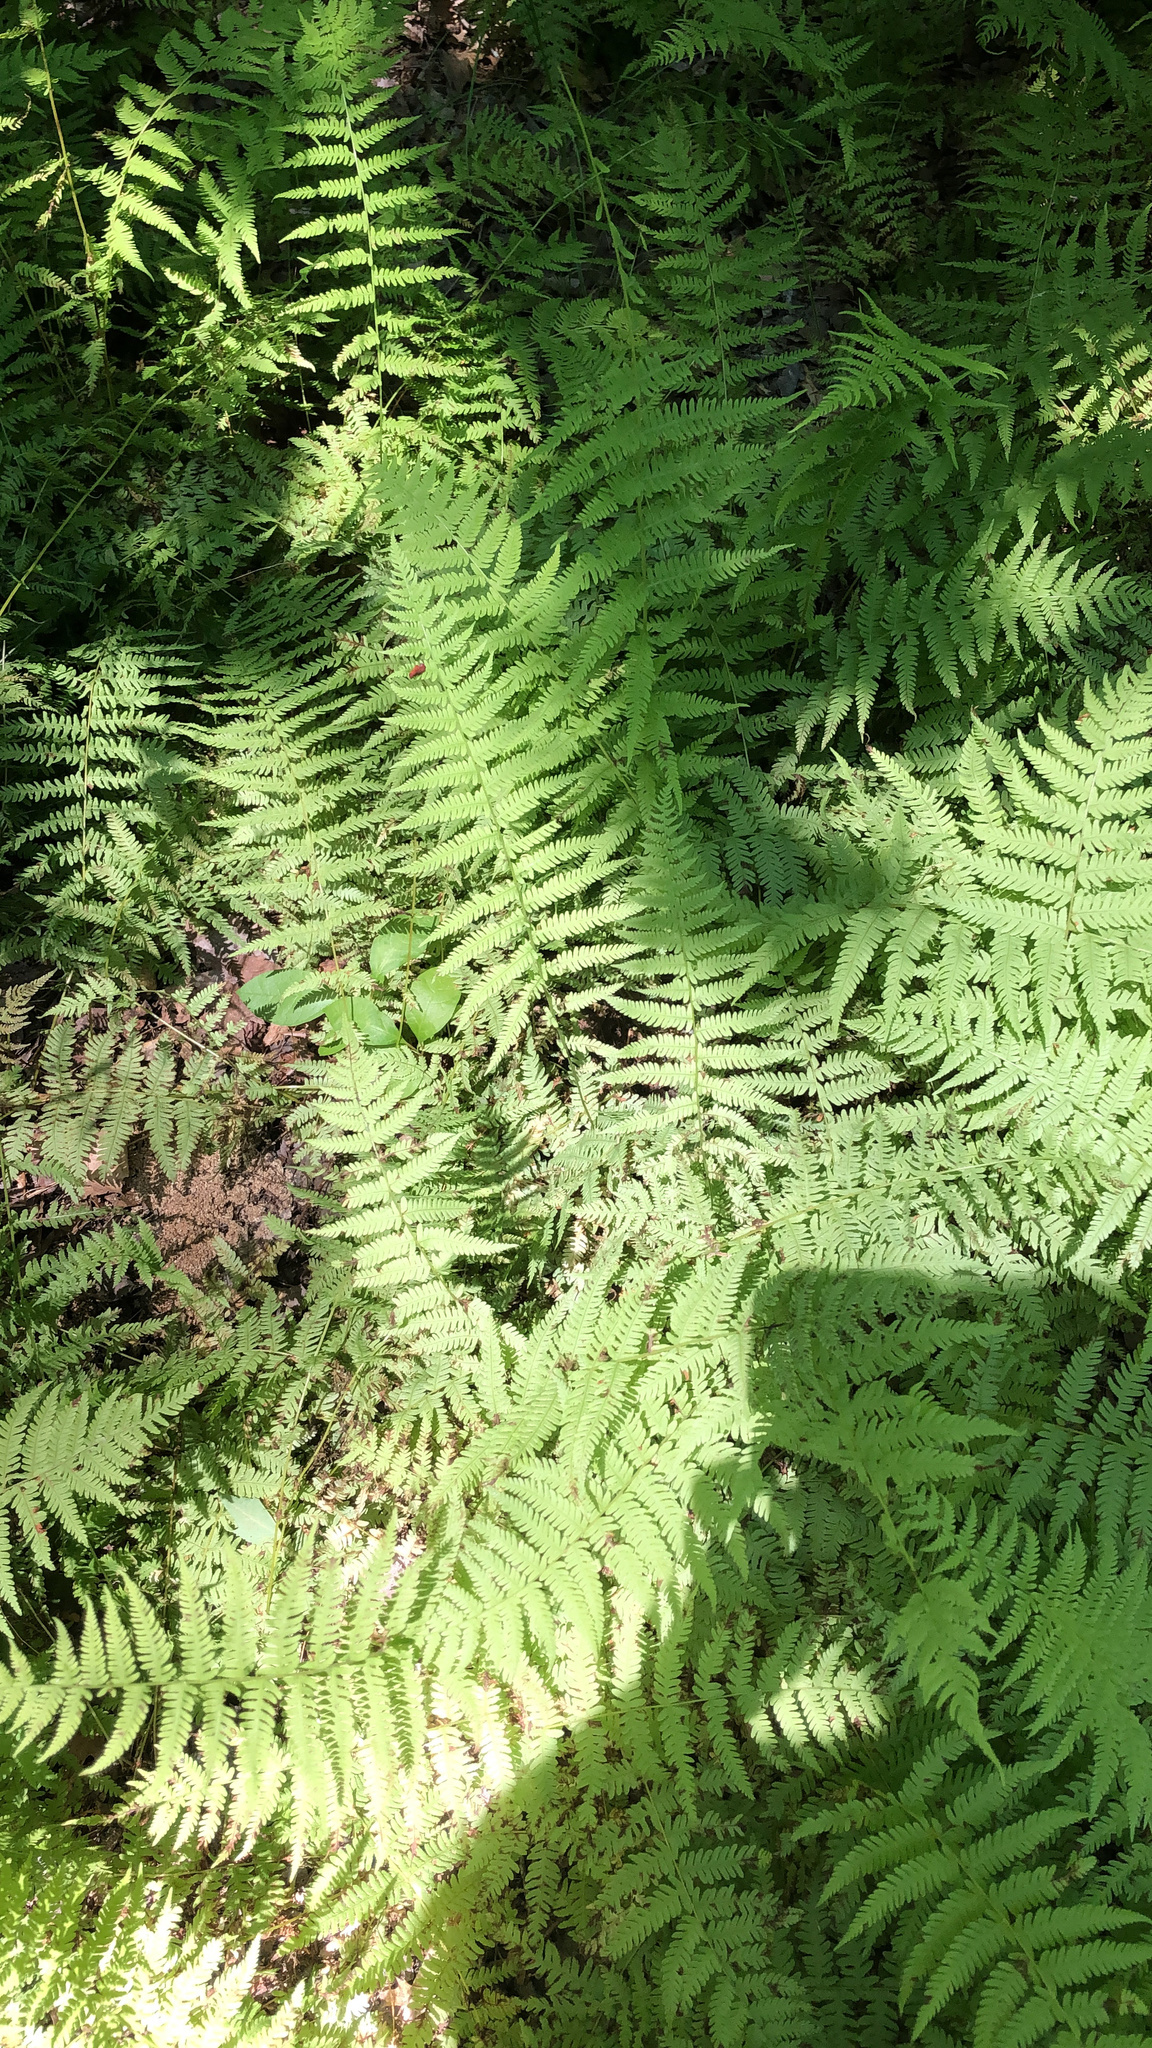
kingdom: Plantae
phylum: Tracheophyta
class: Polypodiopsida
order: Polypodiales
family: Thelypteridaceae
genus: Amauropelta
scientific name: Amauropelta noveboracensis
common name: New york fern
